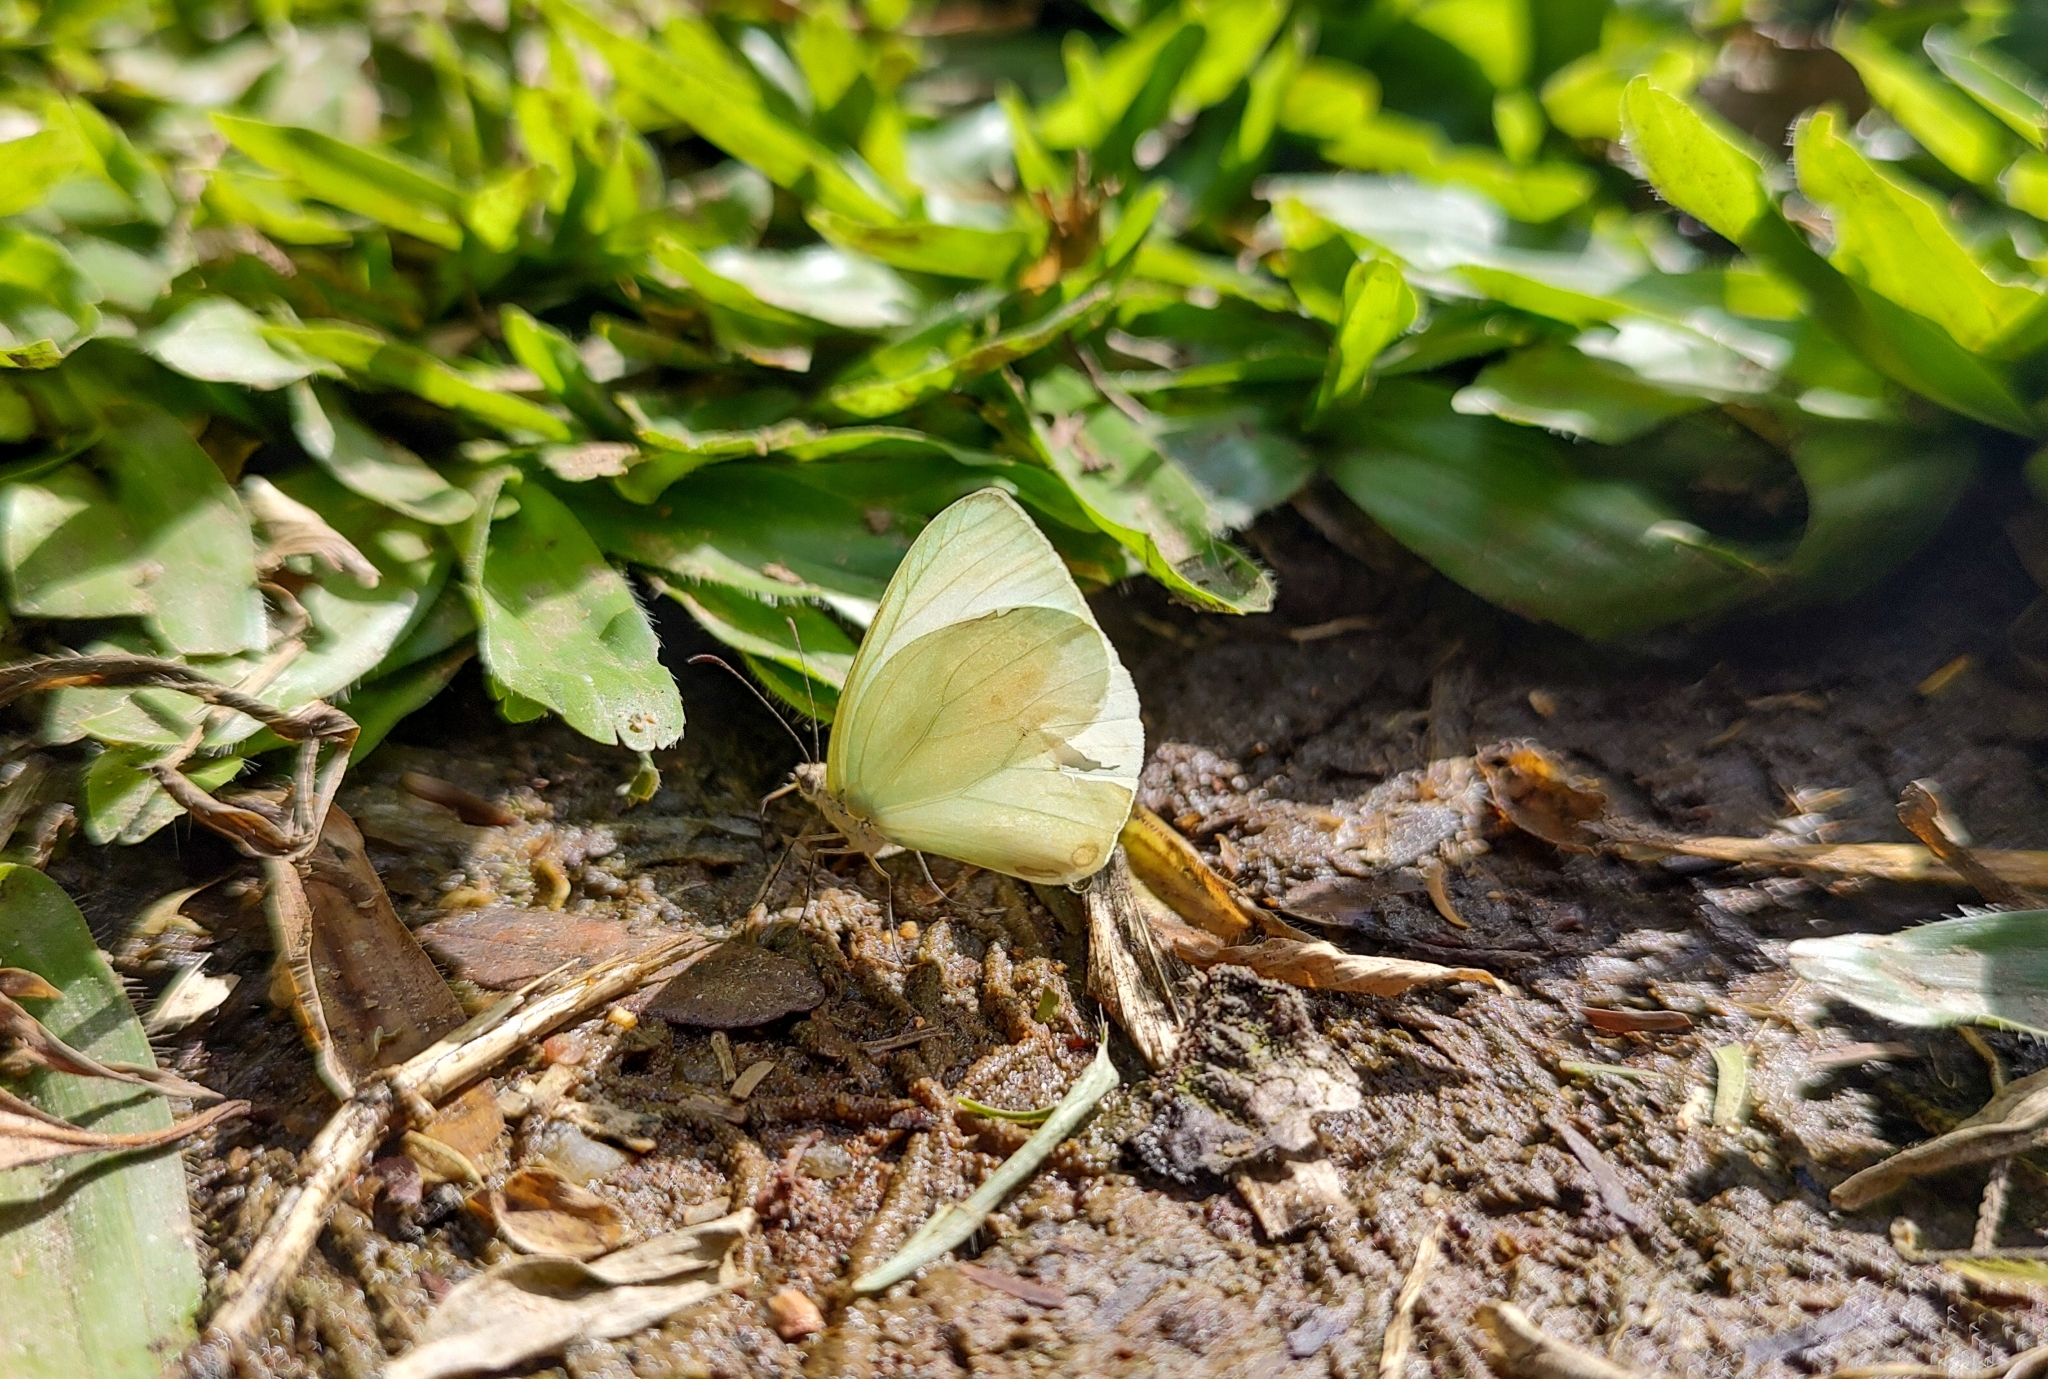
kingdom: Animalia
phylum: Arthropoda
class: Insecta
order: Lepidoptera
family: Pieridae
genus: Pseudopieris
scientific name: Pseudopieris nehemia
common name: Clean mimic-white
